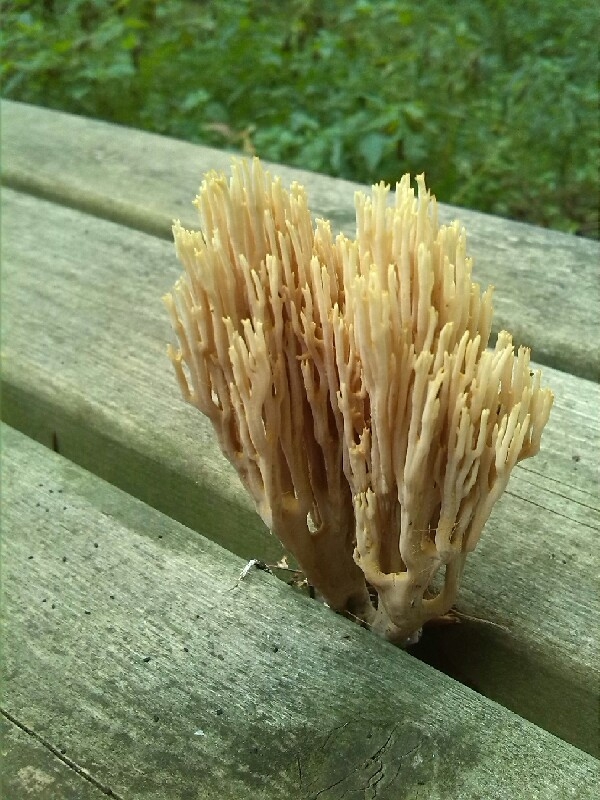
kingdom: Fungi
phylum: Basidiomycota
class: Agaricomycetes
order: Gomphales
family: Gomphaceae
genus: Ramaria
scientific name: Ramaria stricta
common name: Upright coral
